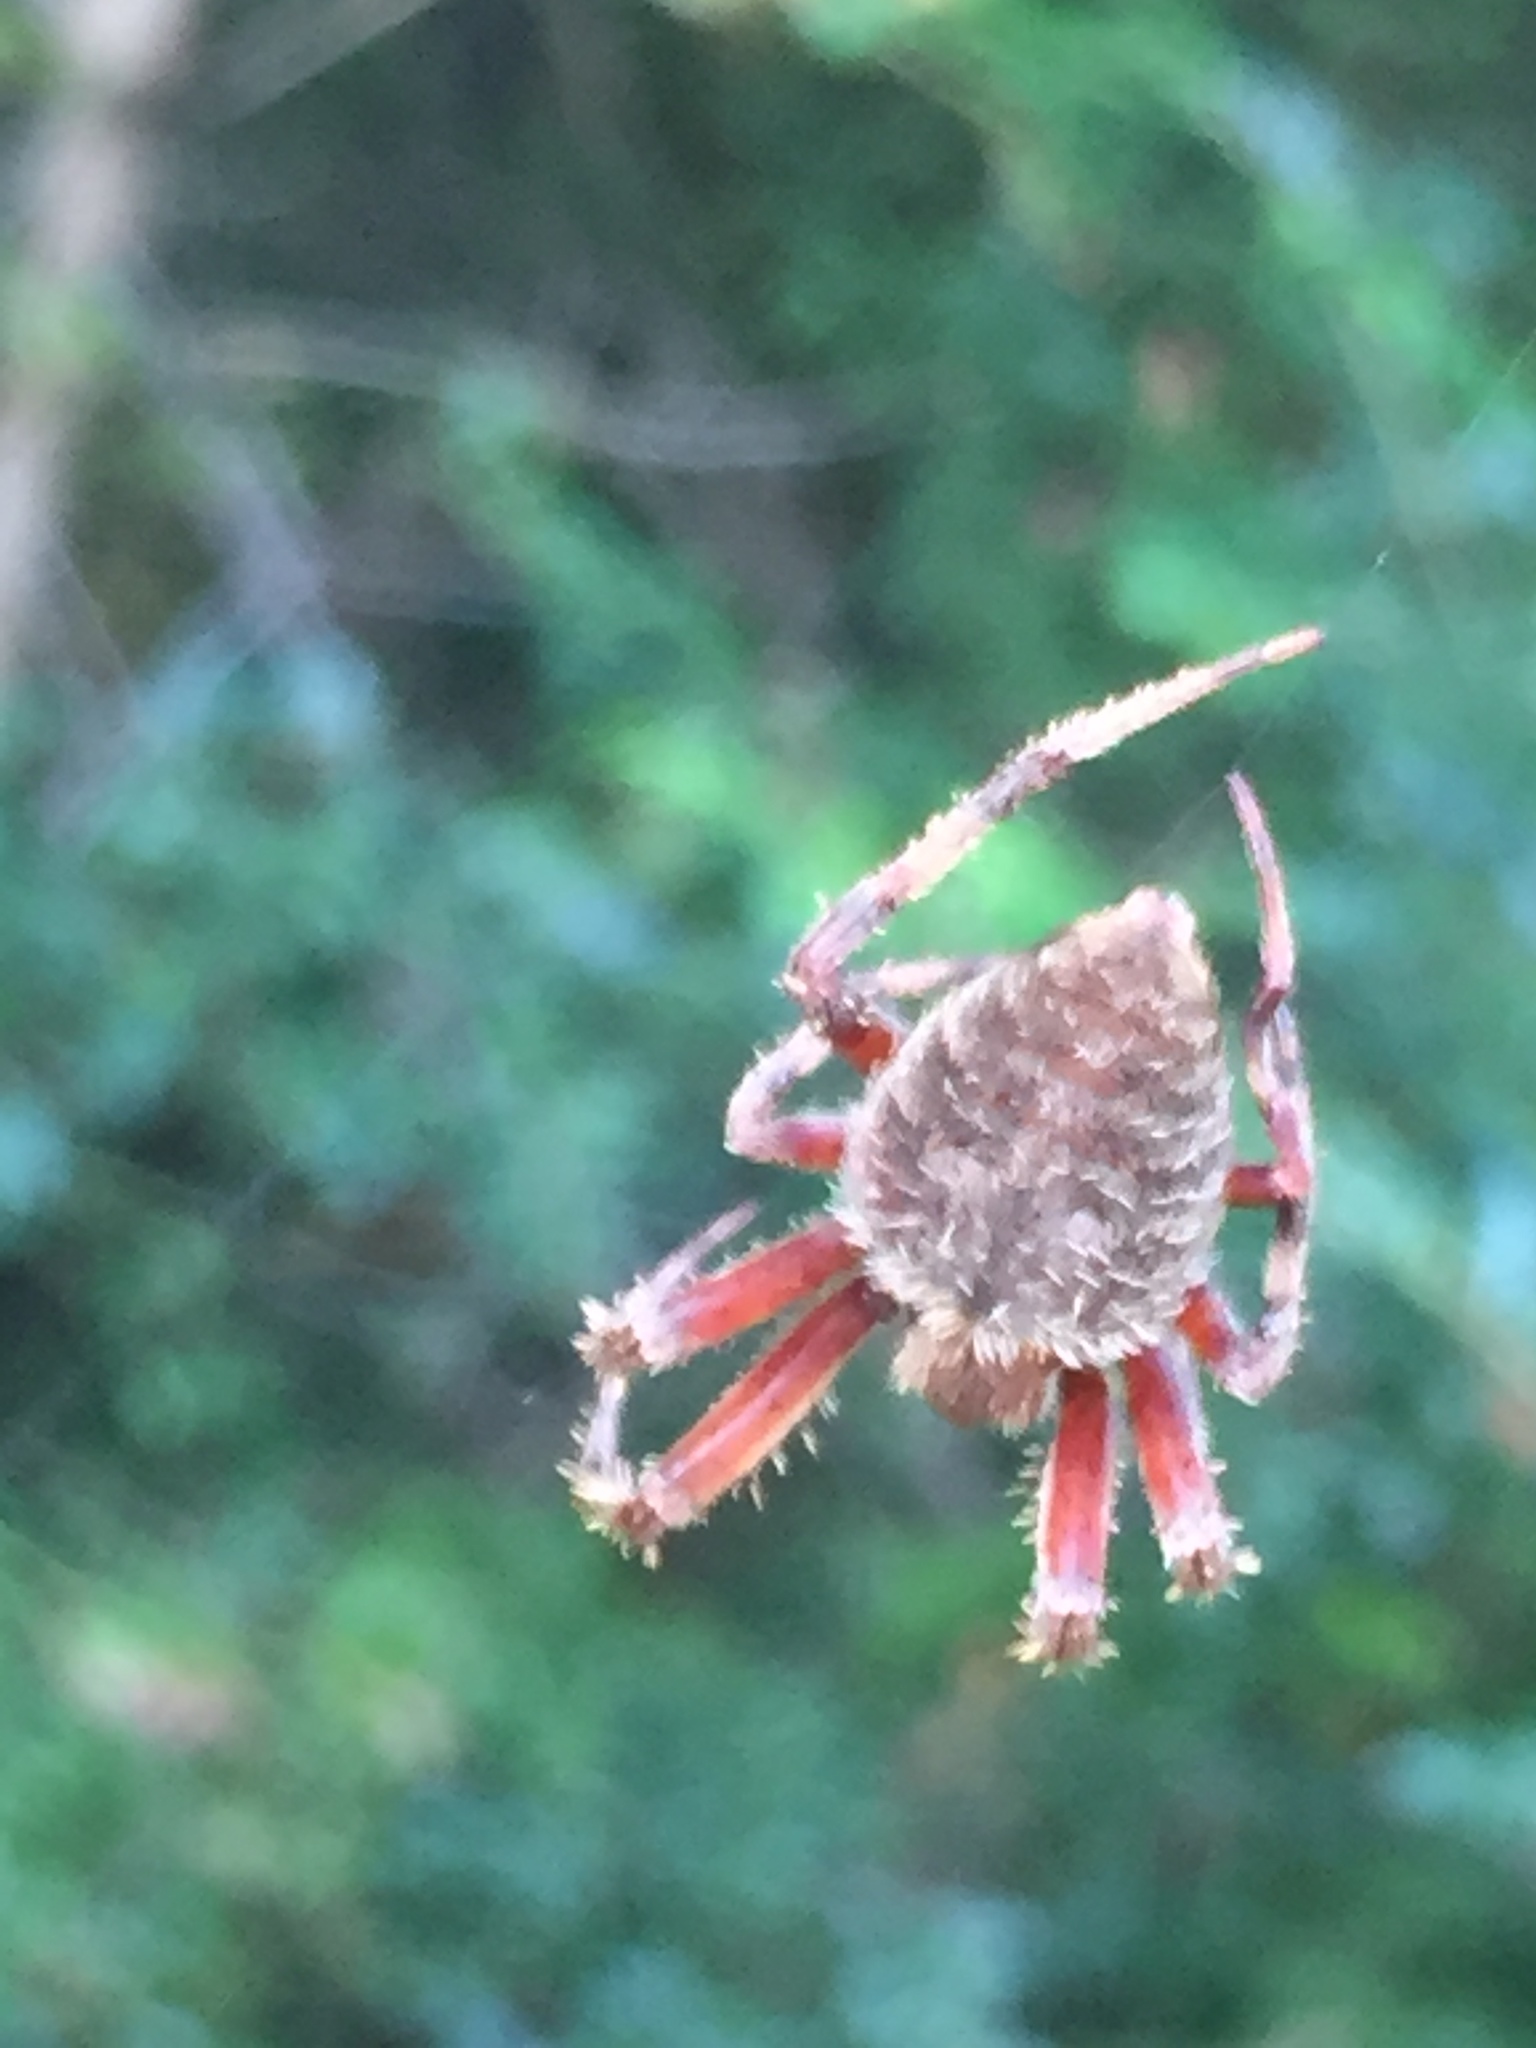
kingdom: Animalia
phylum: Arthropoda
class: Arachnida
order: Araneae
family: Araneidae
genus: Neoscona
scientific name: Neoscona crucifera
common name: Spotted orbweaver
